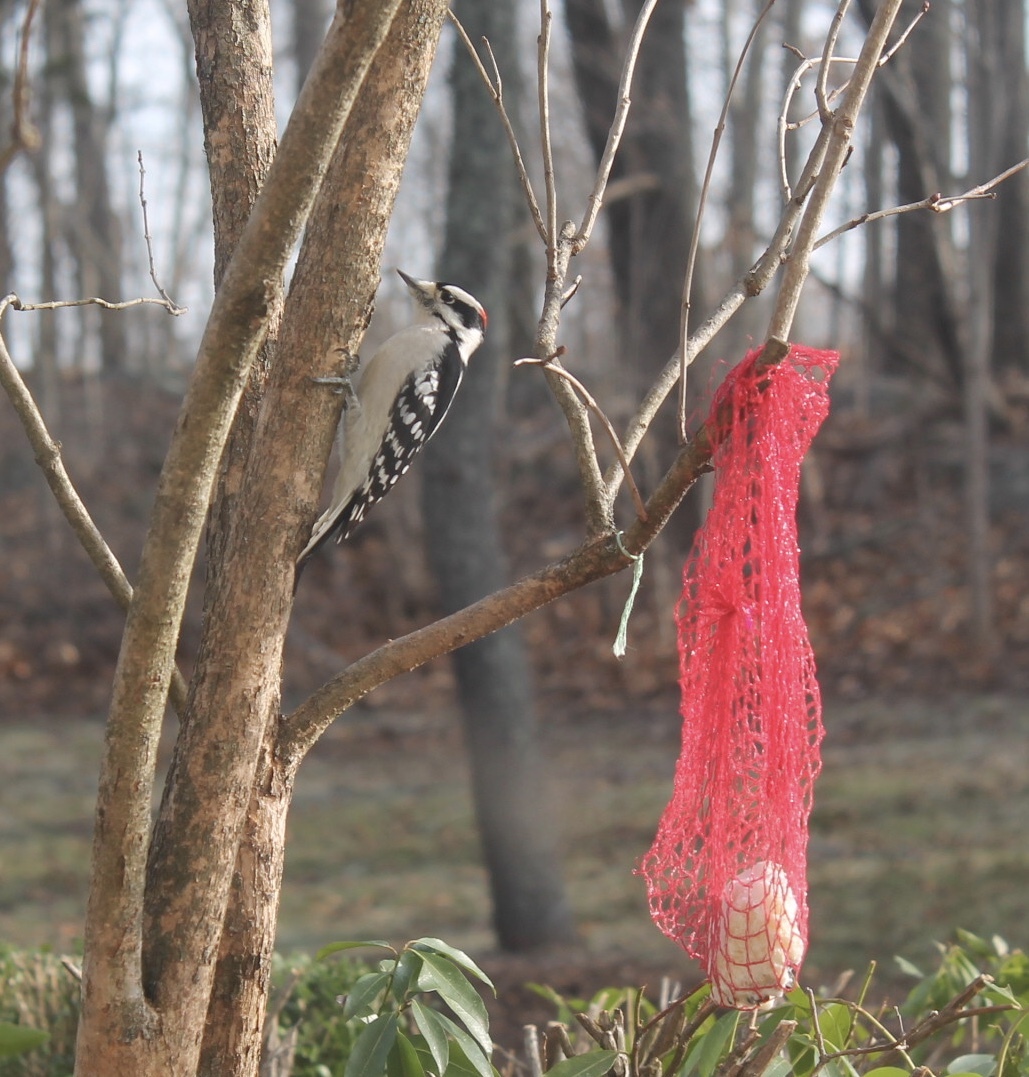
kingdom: Animalia
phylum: Chordata
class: Aves
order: Piciformes
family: Picidae
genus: Dryobates
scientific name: Dryobates pubescens
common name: Downy woodpecker
